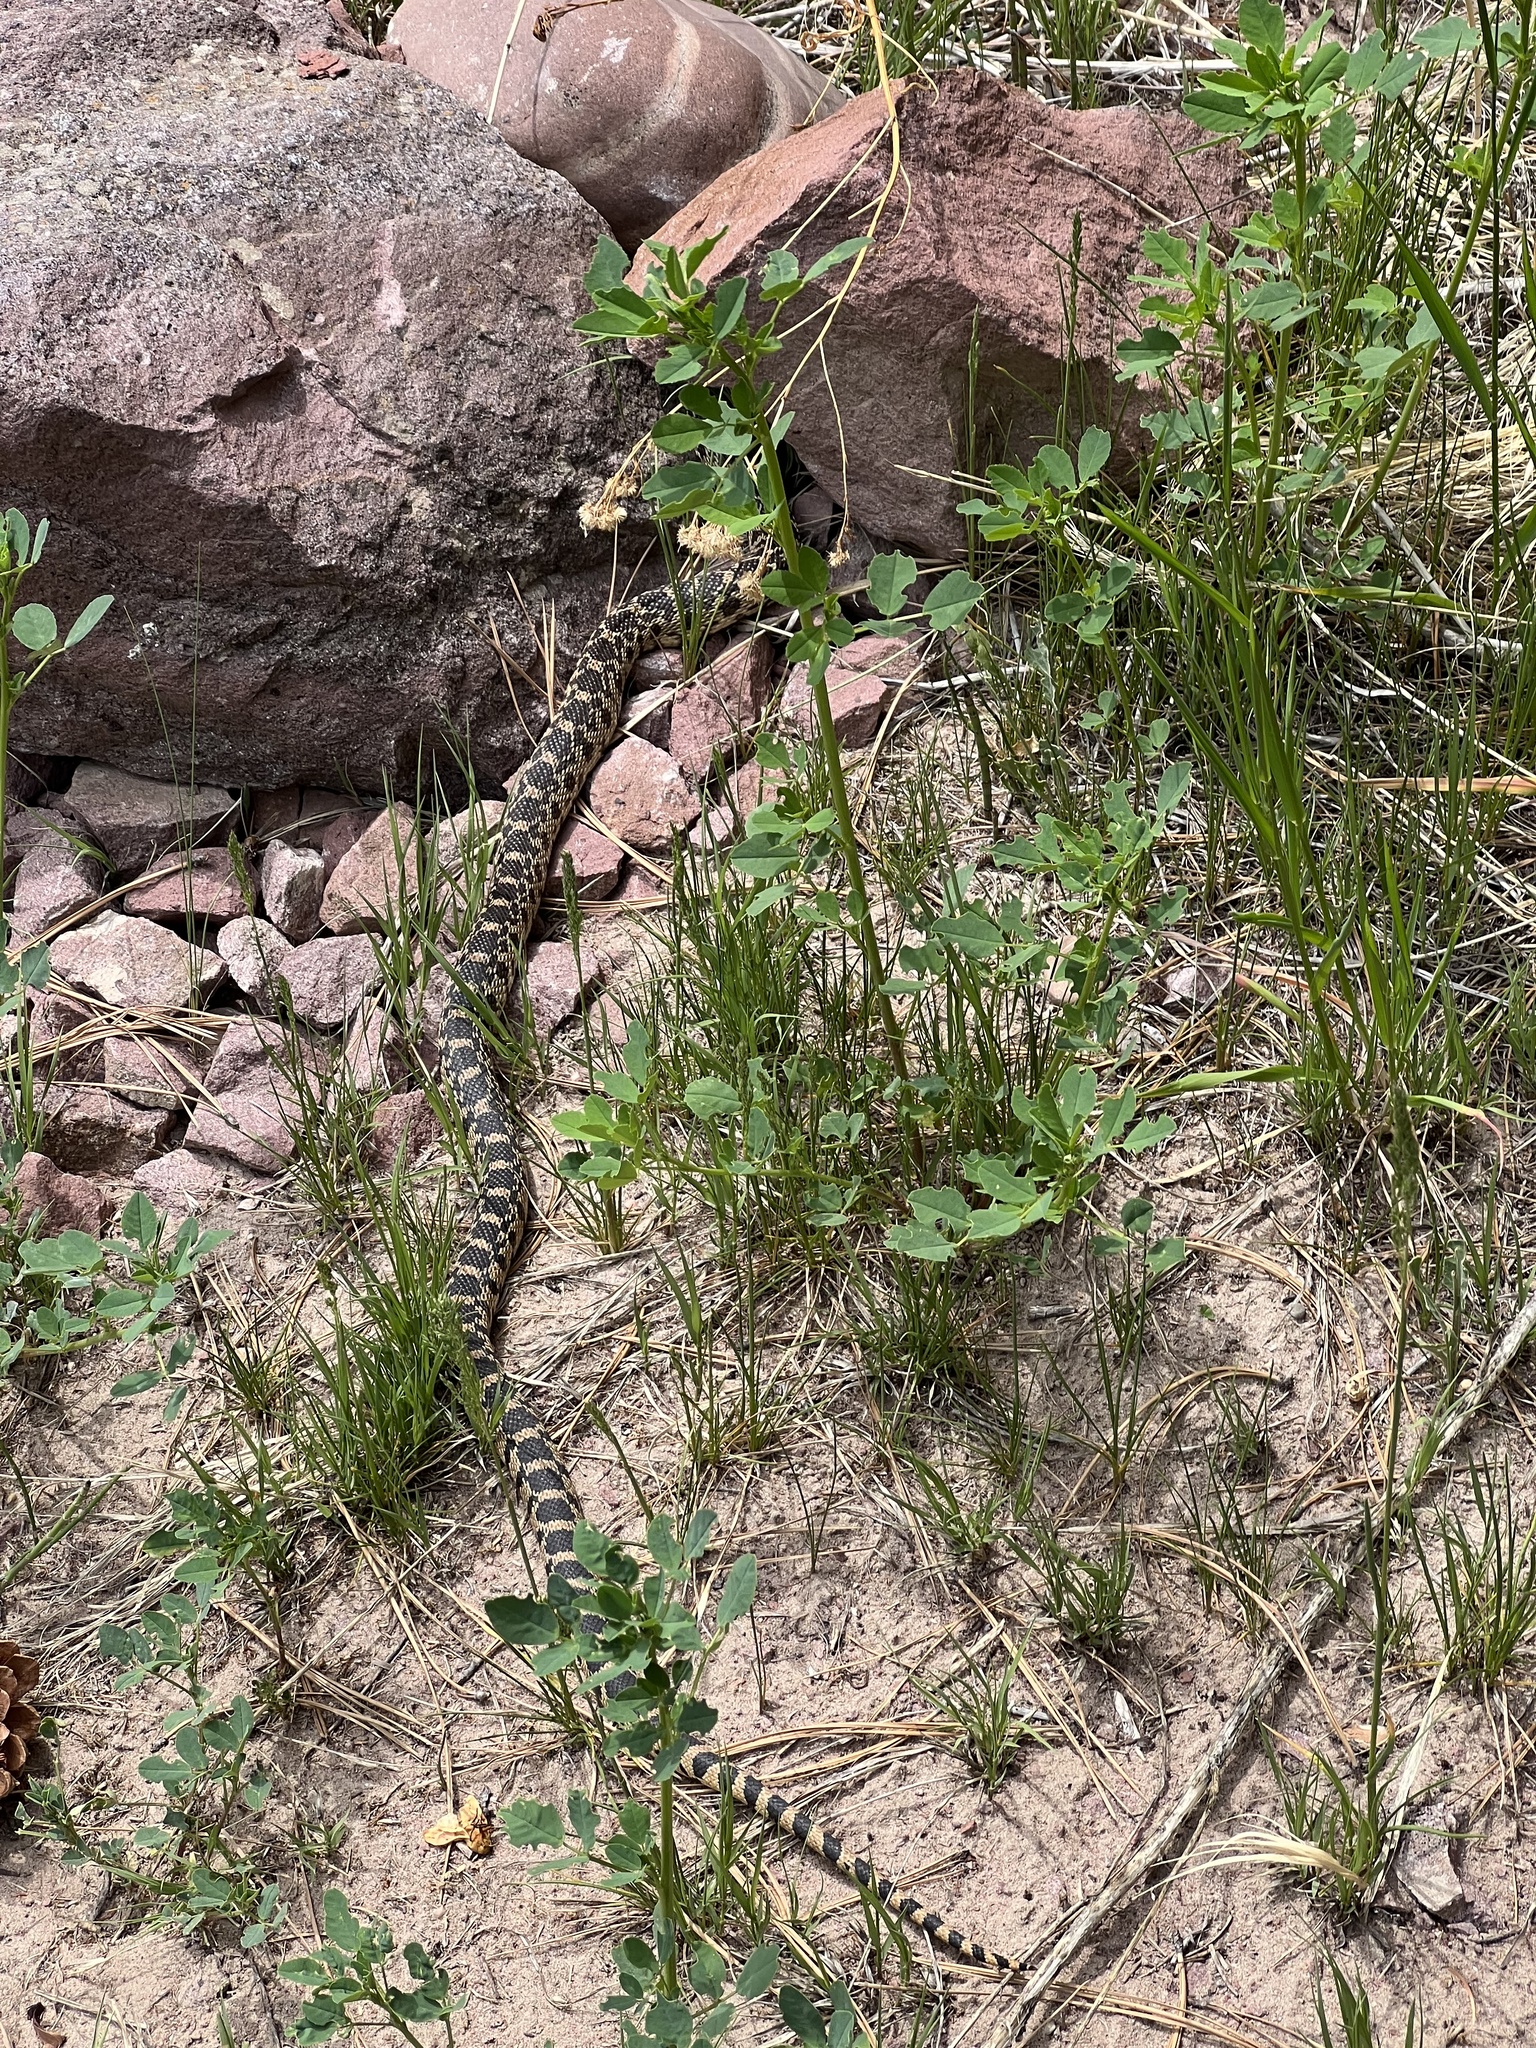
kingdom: Animalia
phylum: Chordata
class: Squamata
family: Colubridae
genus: Pituophis
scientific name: Pituophis catenifer
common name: Gopher snake
